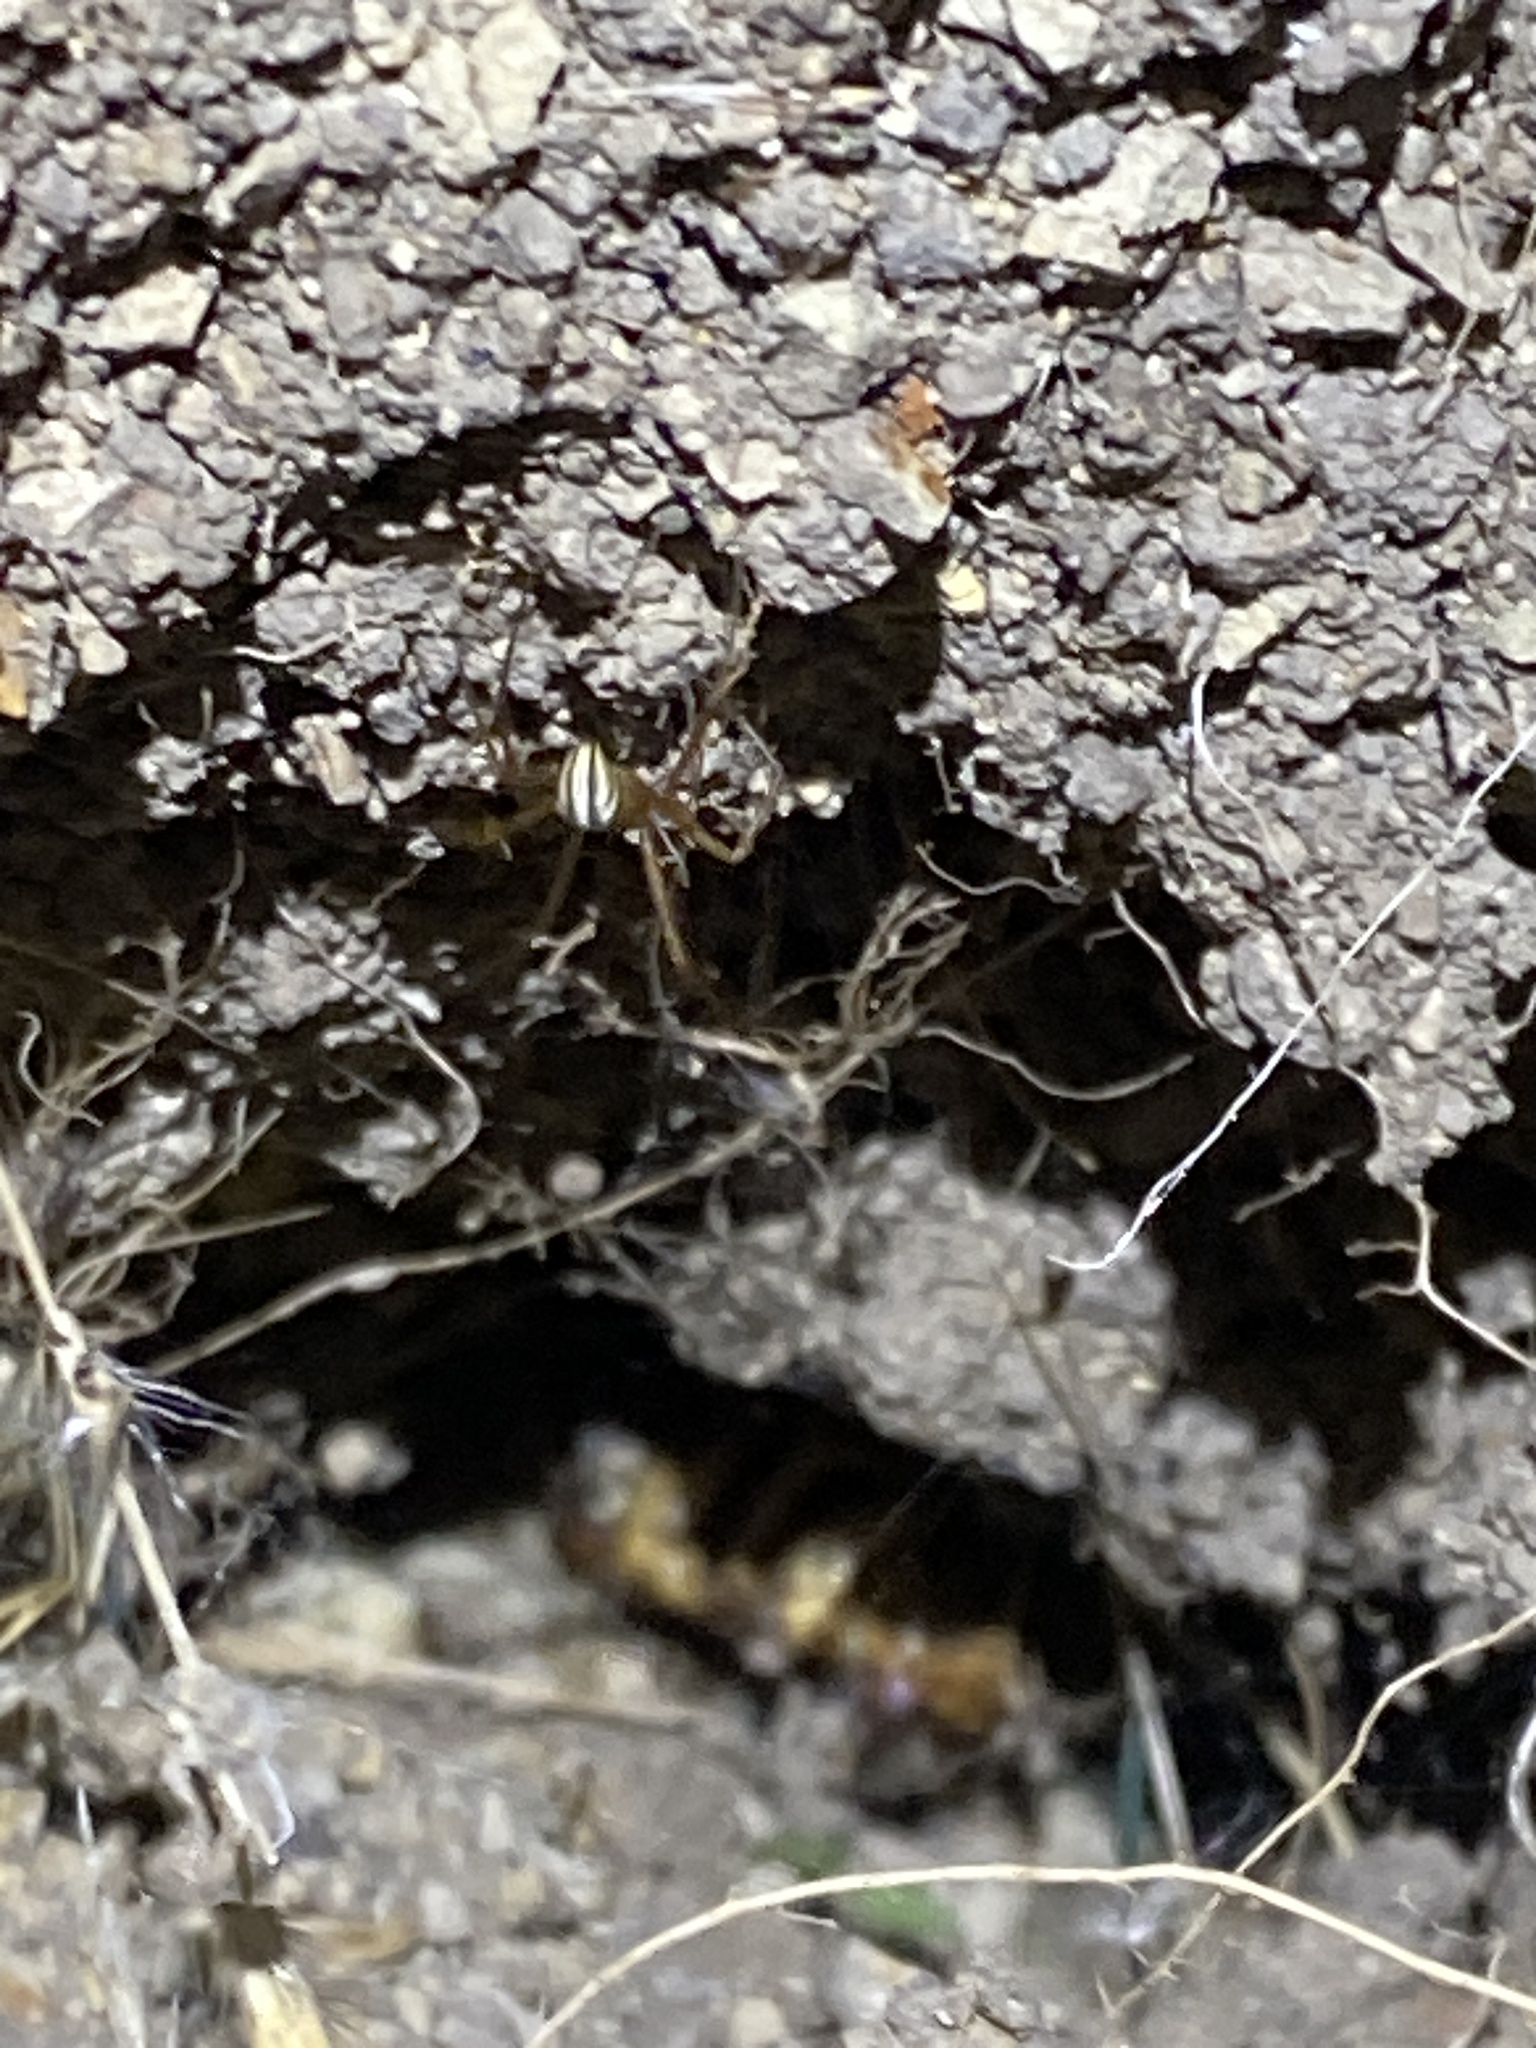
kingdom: Animalia
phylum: Arthropoda
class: Arachnida
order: Araneae
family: Theridiidae
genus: Latrodectus
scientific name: Latrodectus hesperus
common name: Western black widow
